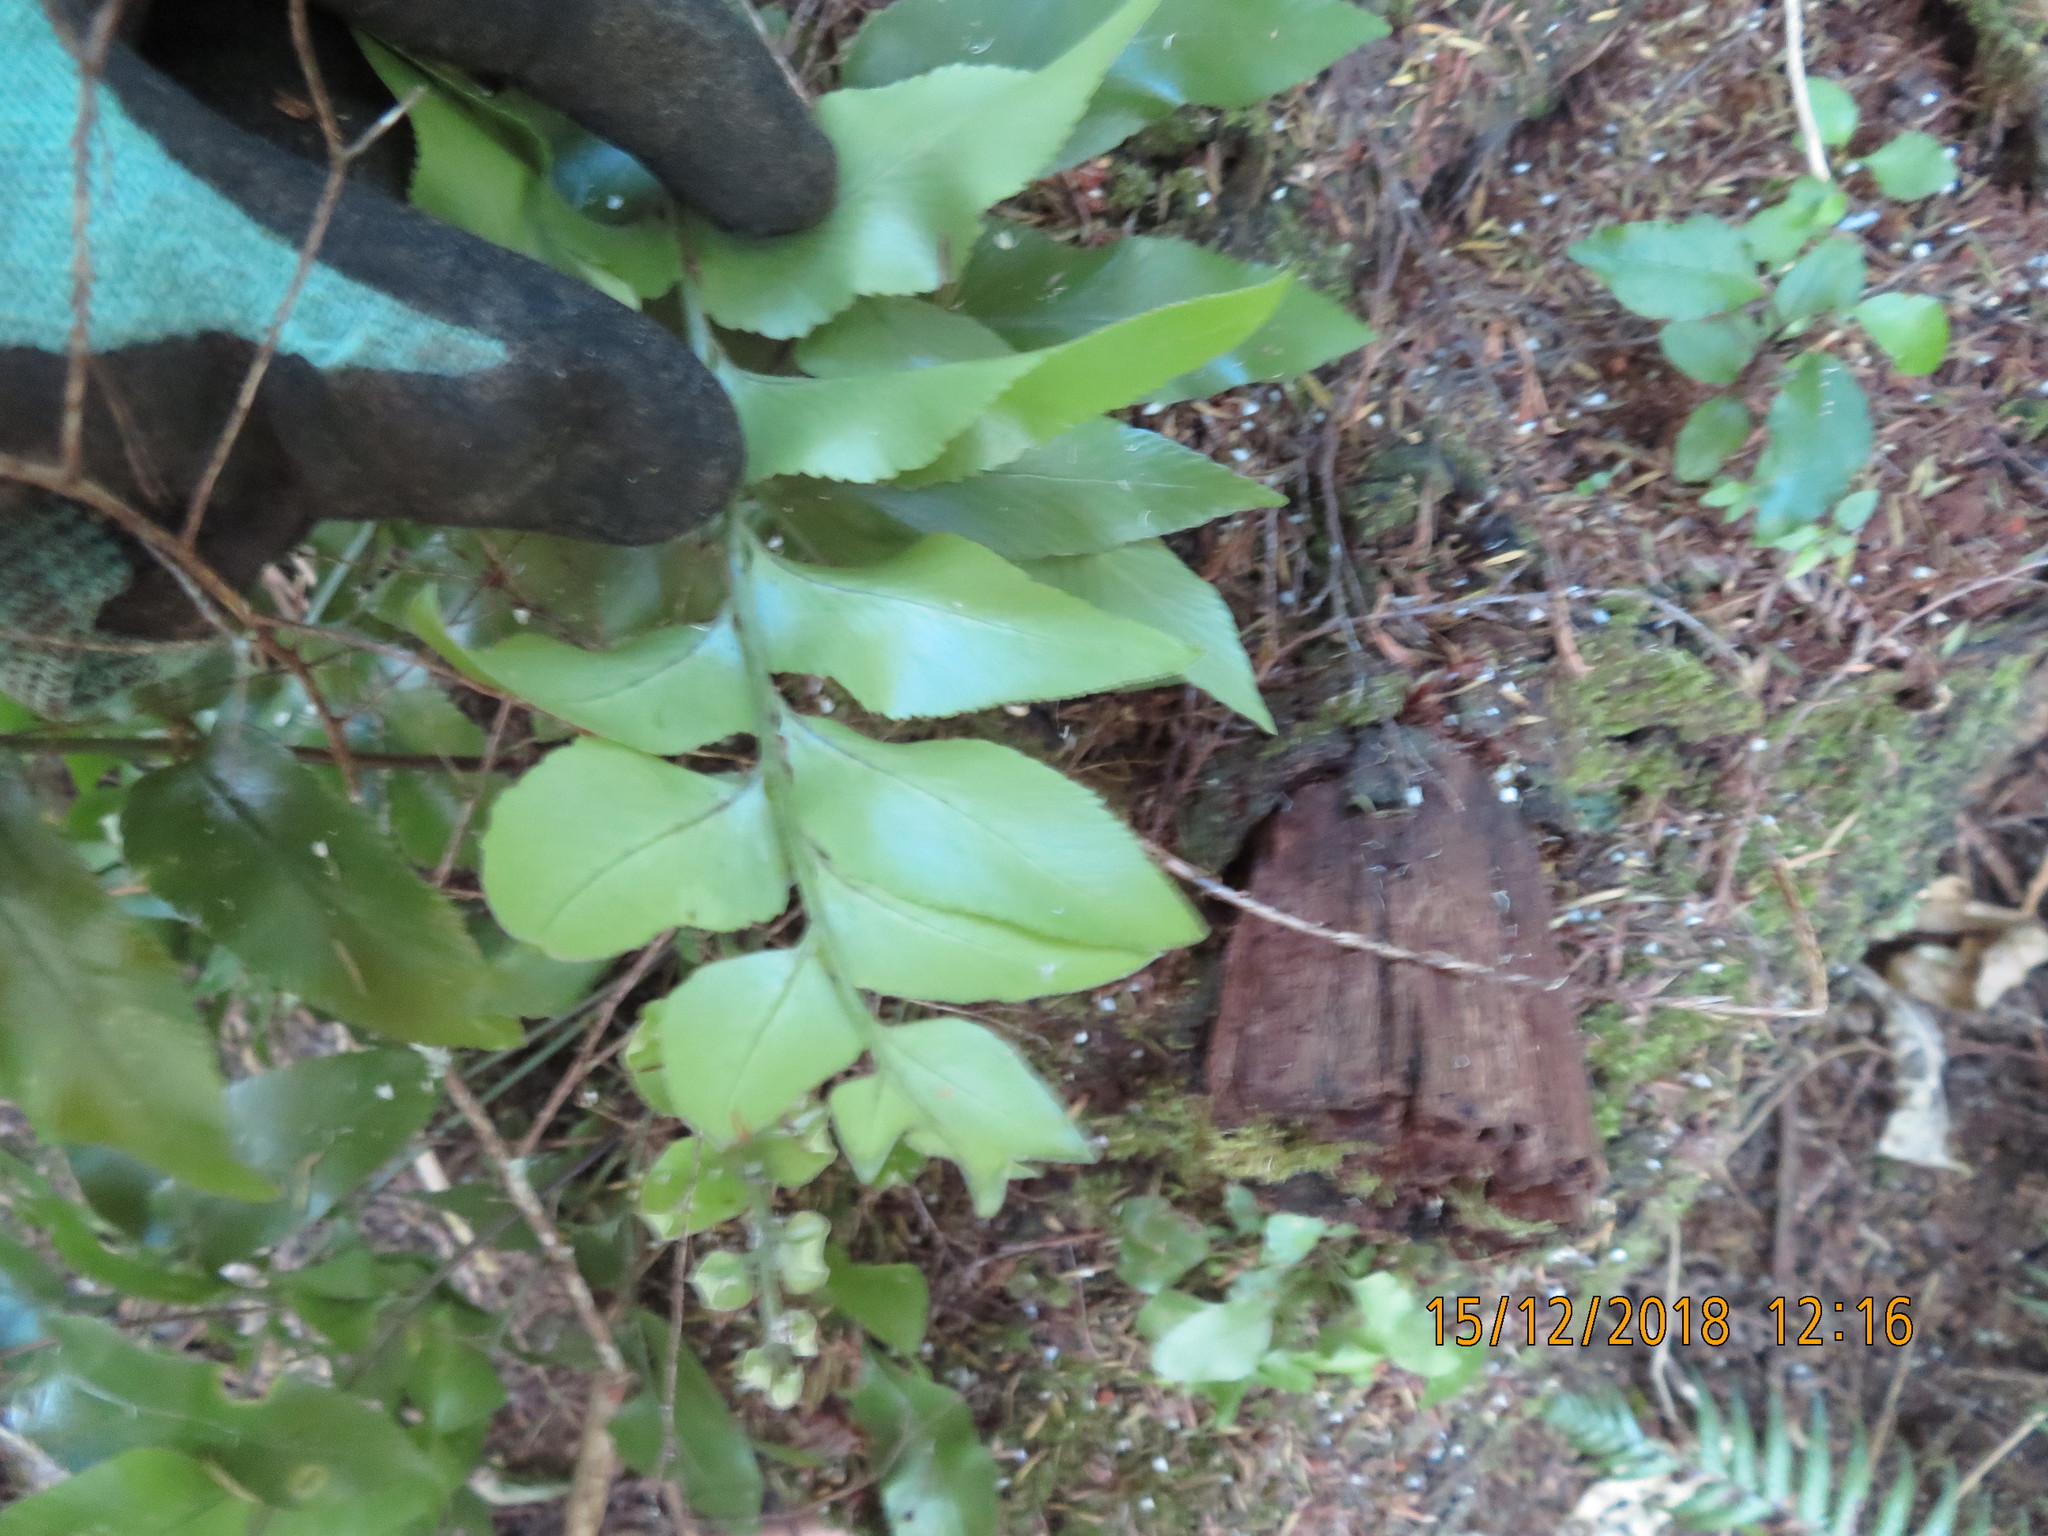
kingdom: Plantae
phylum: Tracheophyta
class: Polypodiopsida
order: Polypodiales
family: Aspleniaceae
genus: Asplenium
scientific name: Asplenium oblongifolium
